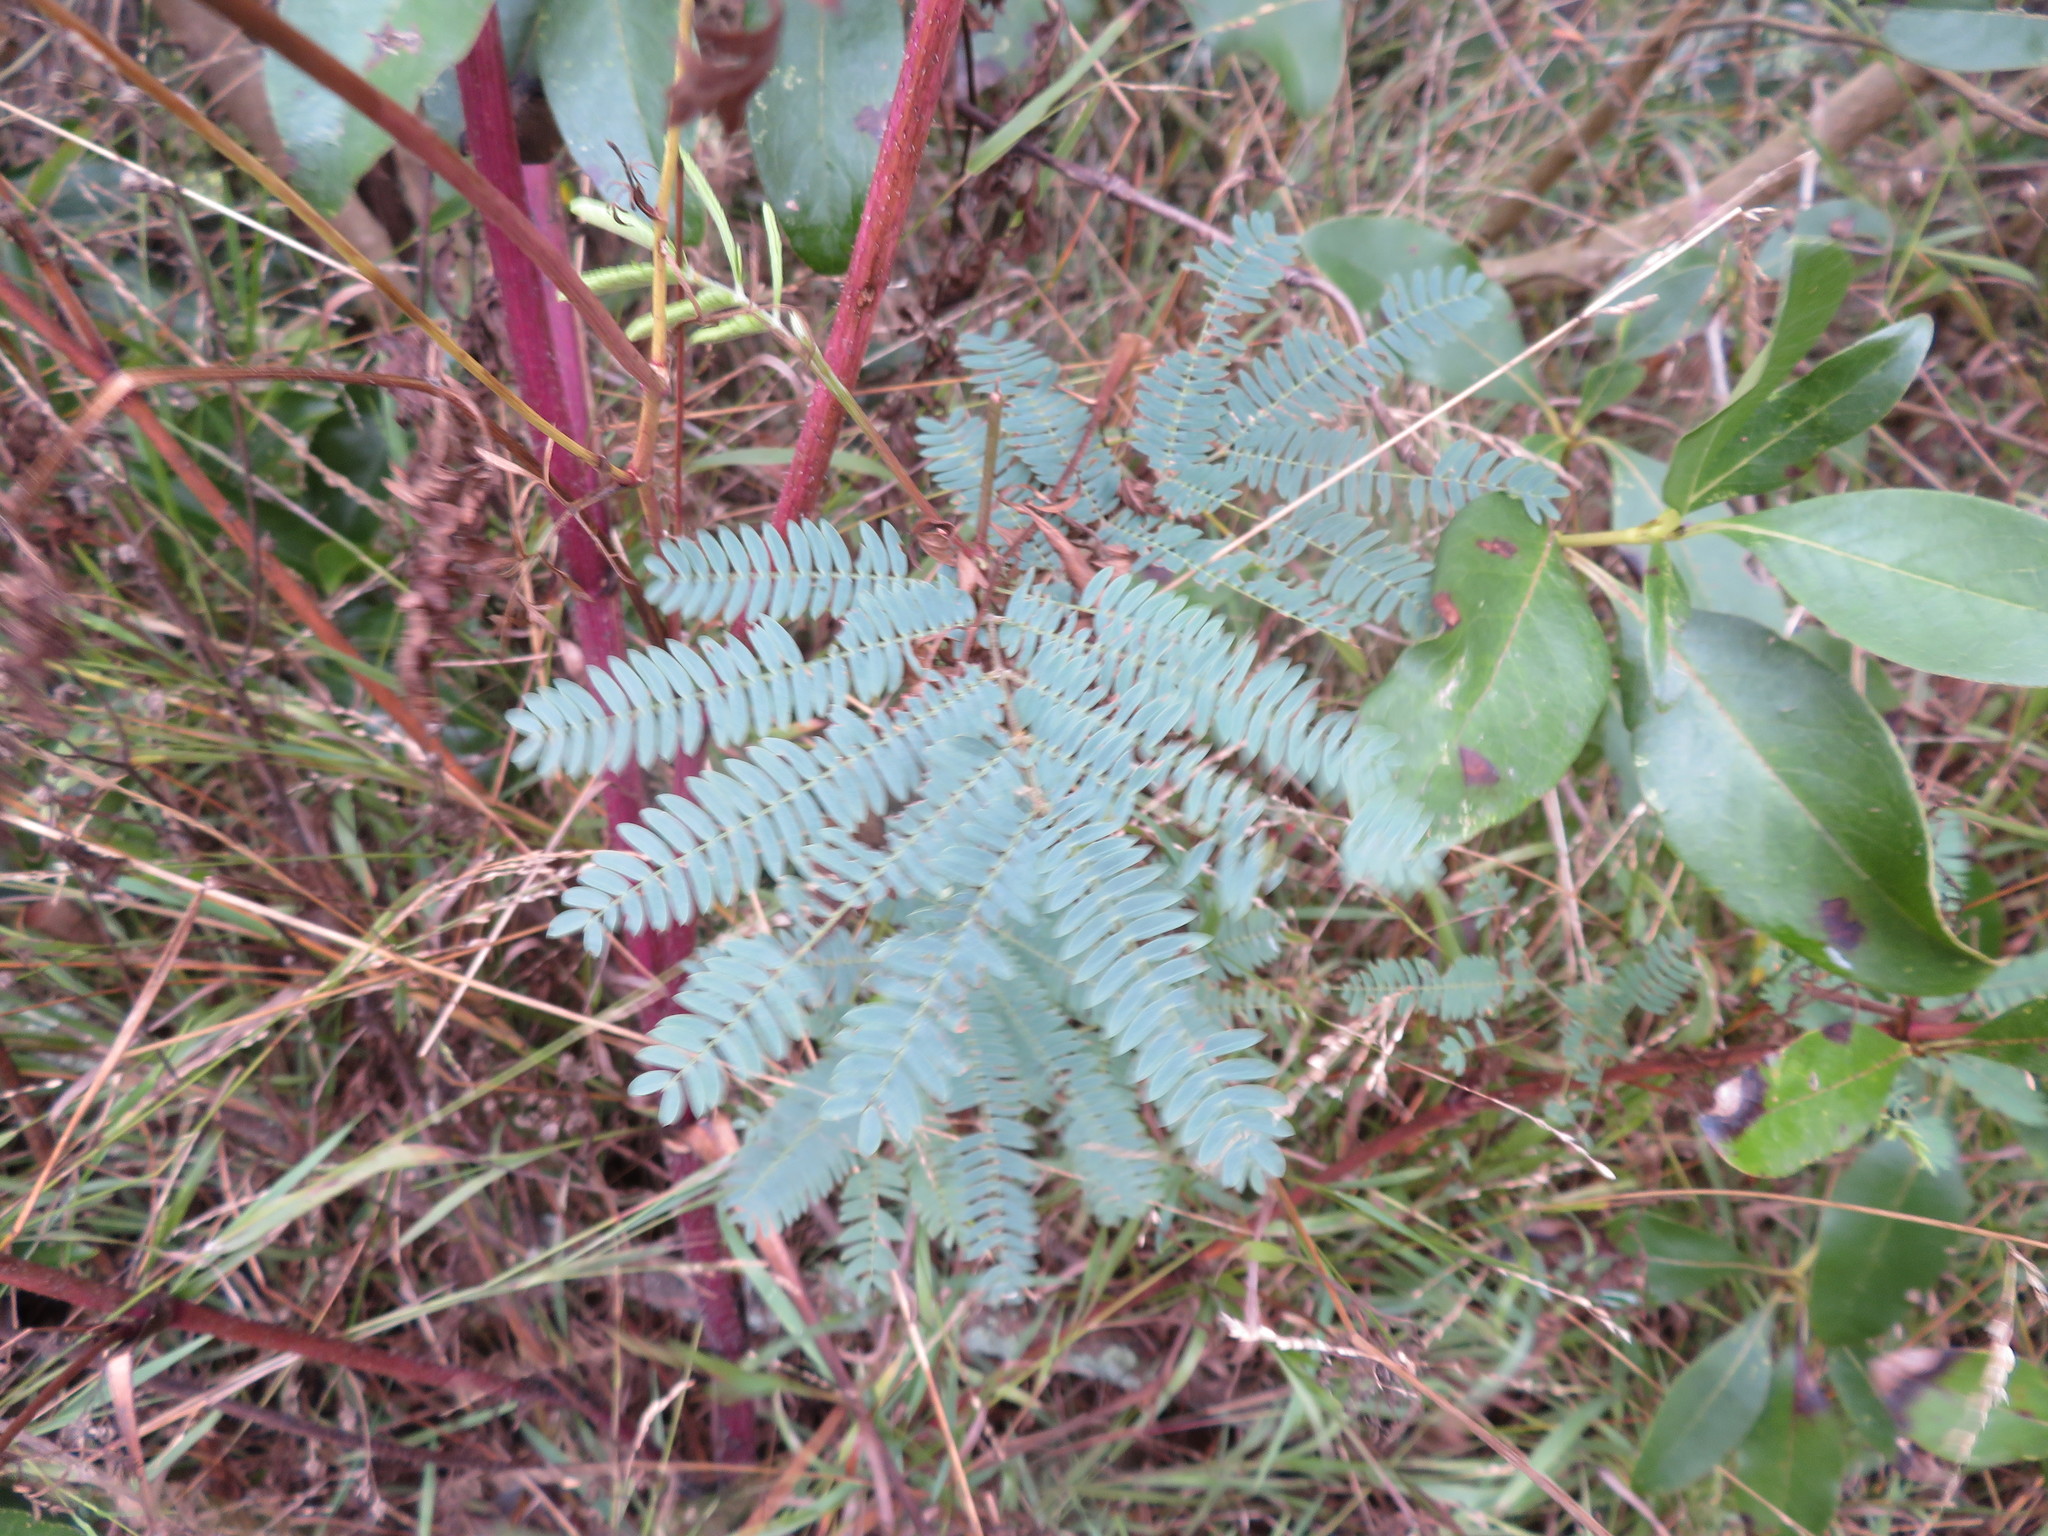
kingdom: Plantae
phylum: Tracheophyta
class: Magnoliopsida
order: Fabales
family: Fabaceae
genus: Paraserianthes
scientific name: Paraserianthes lophantha
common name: Plume albizia
